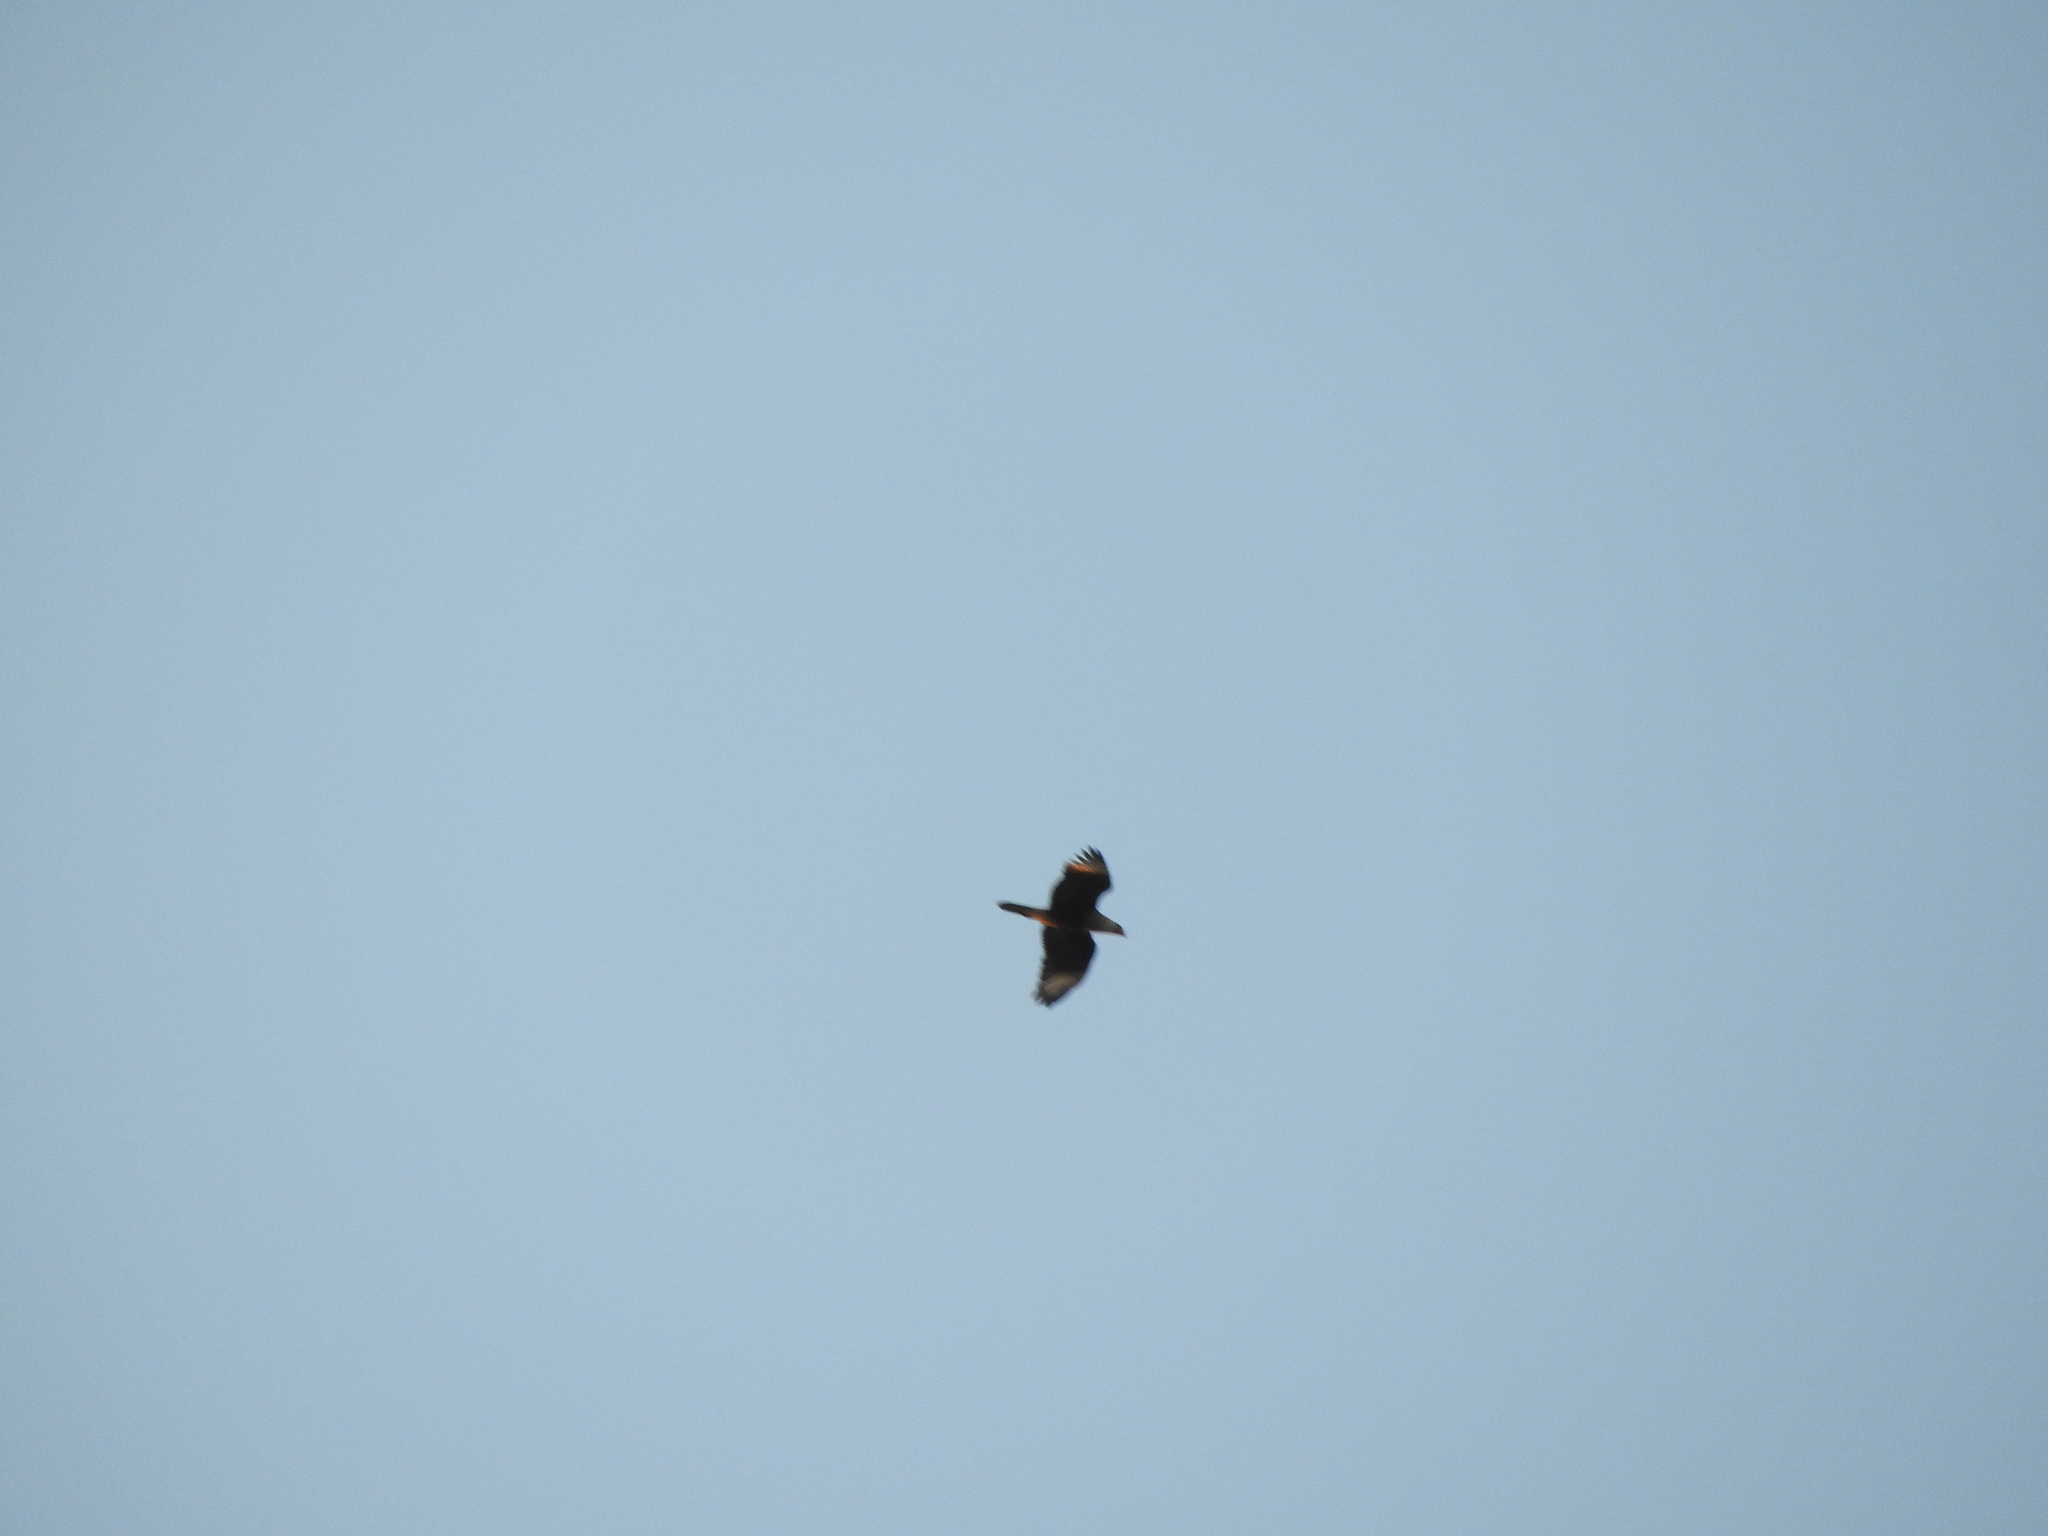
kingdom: Animalia
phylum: Chordata
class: Aves
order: Falconiformes
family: Falconidae
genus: Caracara
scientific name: Caracara plancus
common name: Southern caracara
